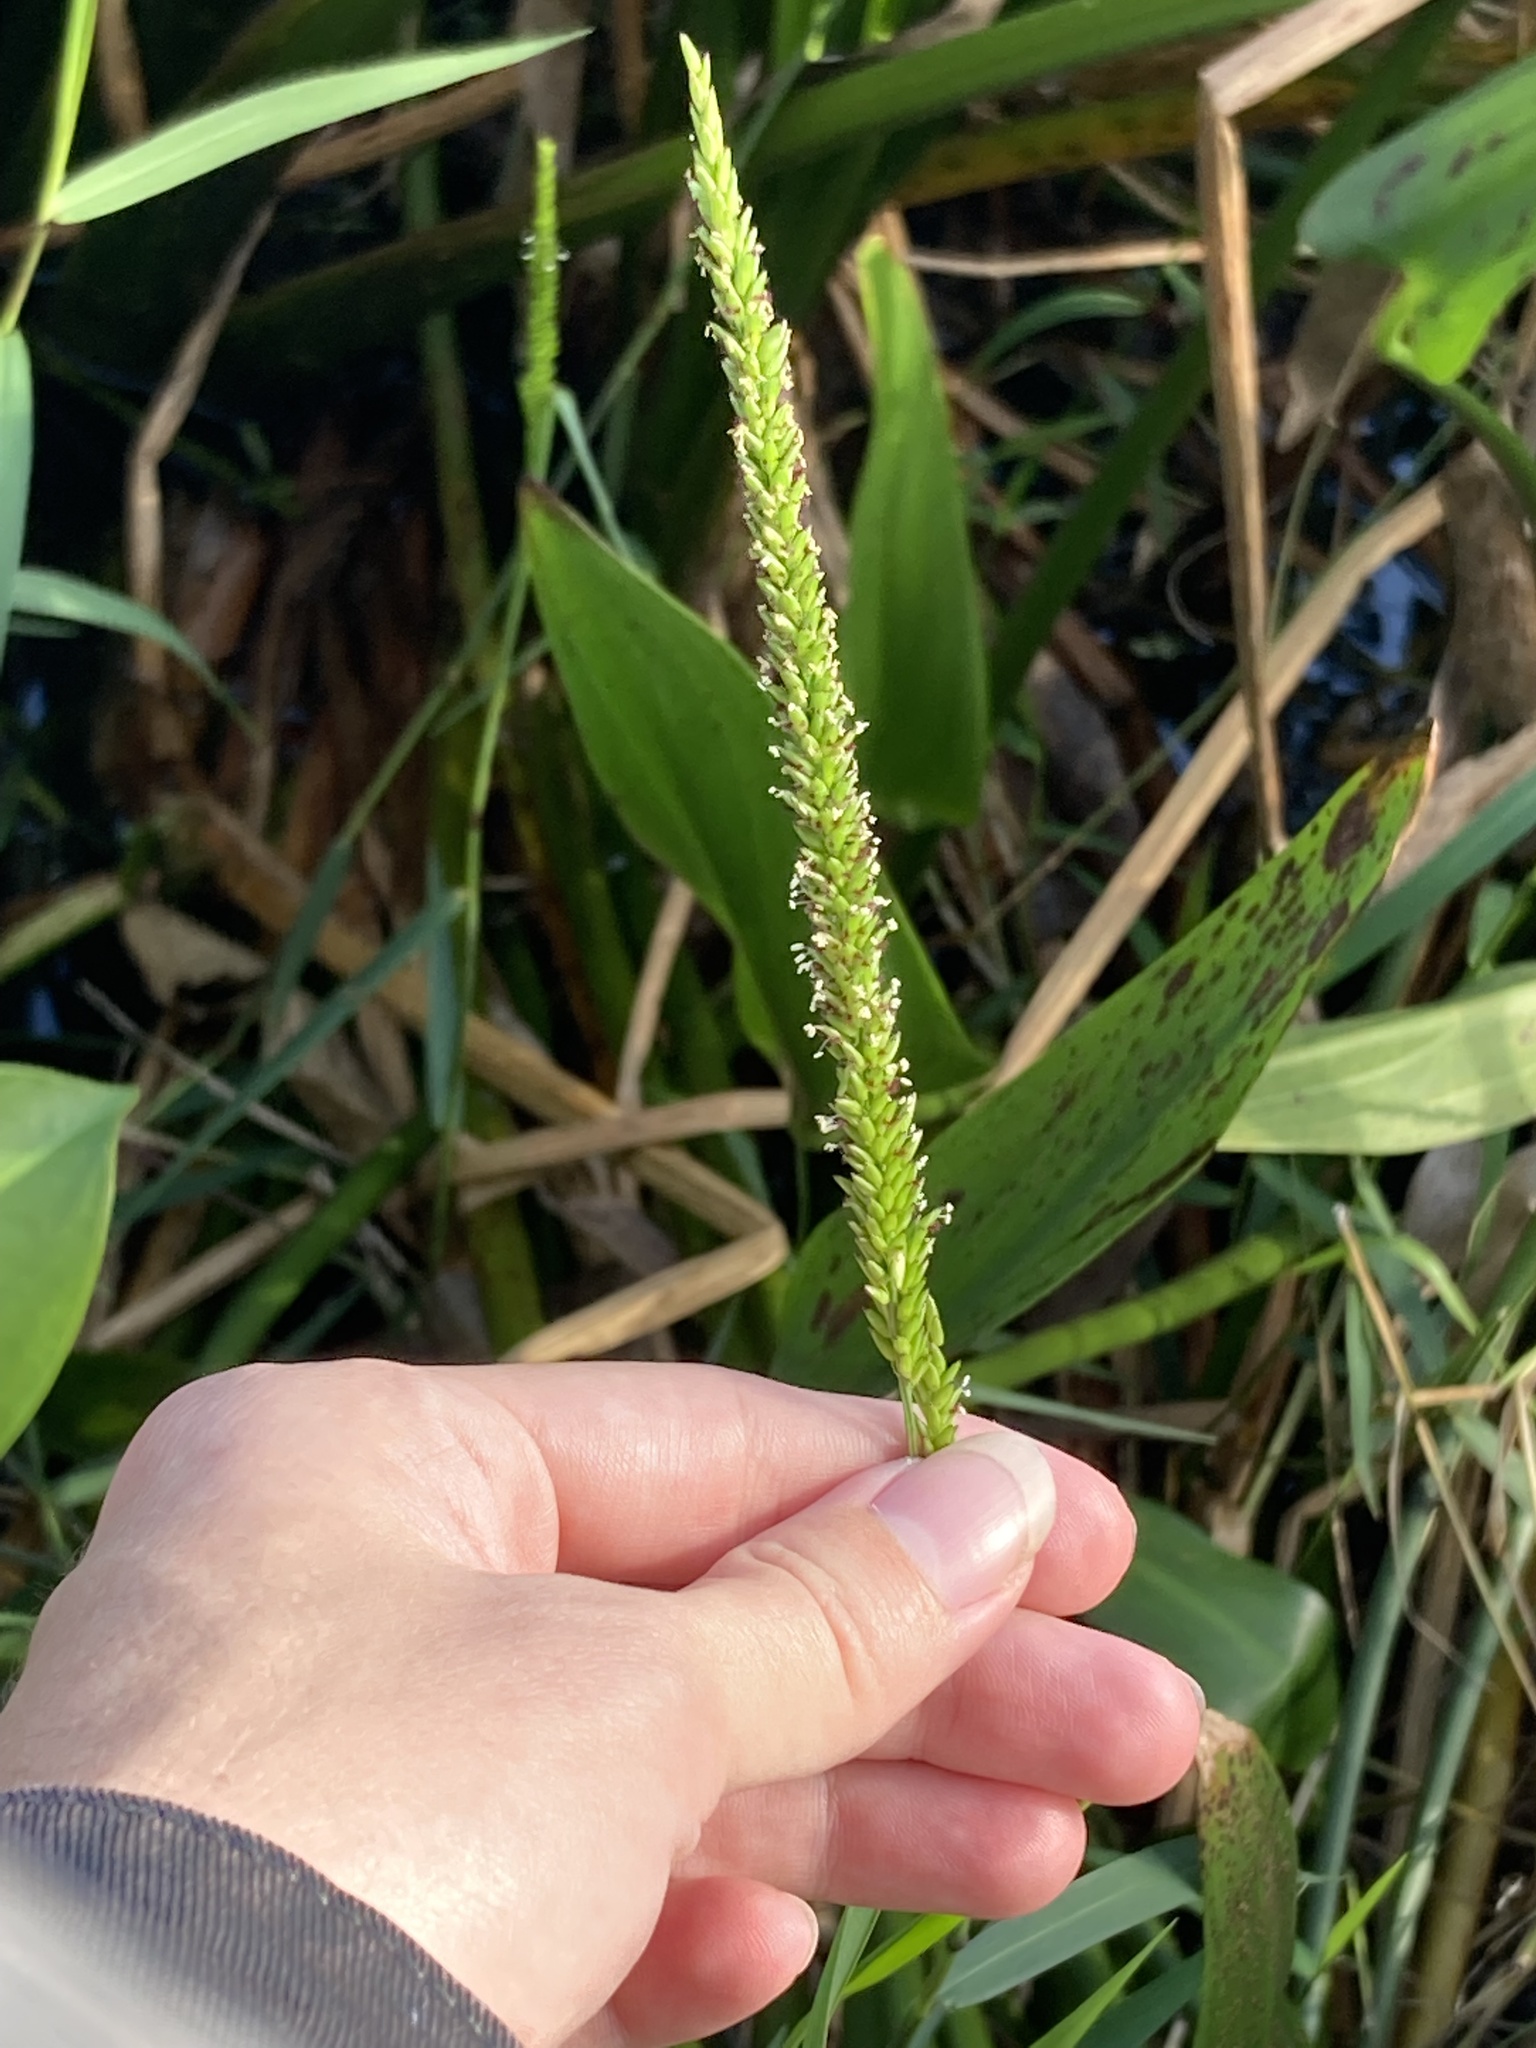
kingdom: Plantae
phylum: Tracheophyta
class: Liliopsida
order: Poales
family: Poaceae
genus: Sacciolepis
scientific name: Sacciolepis striata
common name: American cupscale
